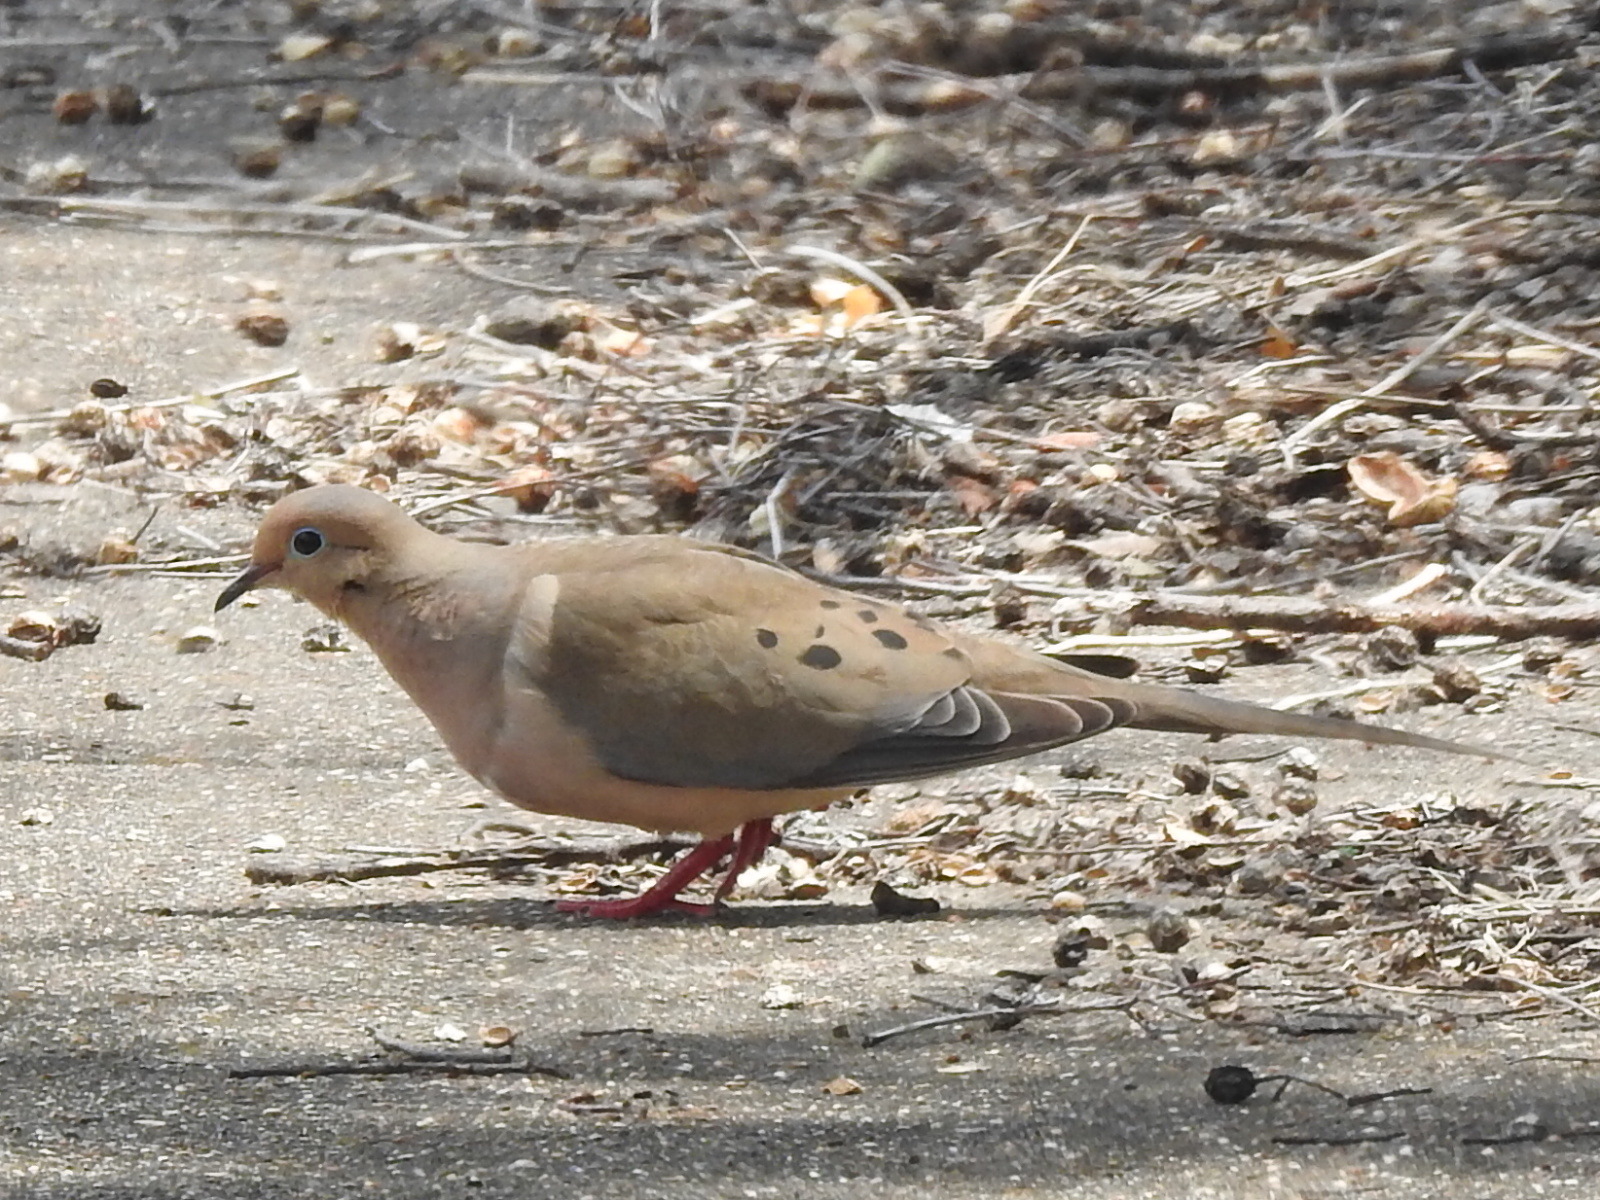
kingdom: Animalia
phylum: Chordata
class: Aves
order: Columbiformes
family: Columbidae
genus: Zenaida
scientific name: Zenaida macroura
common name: Mourning dove
